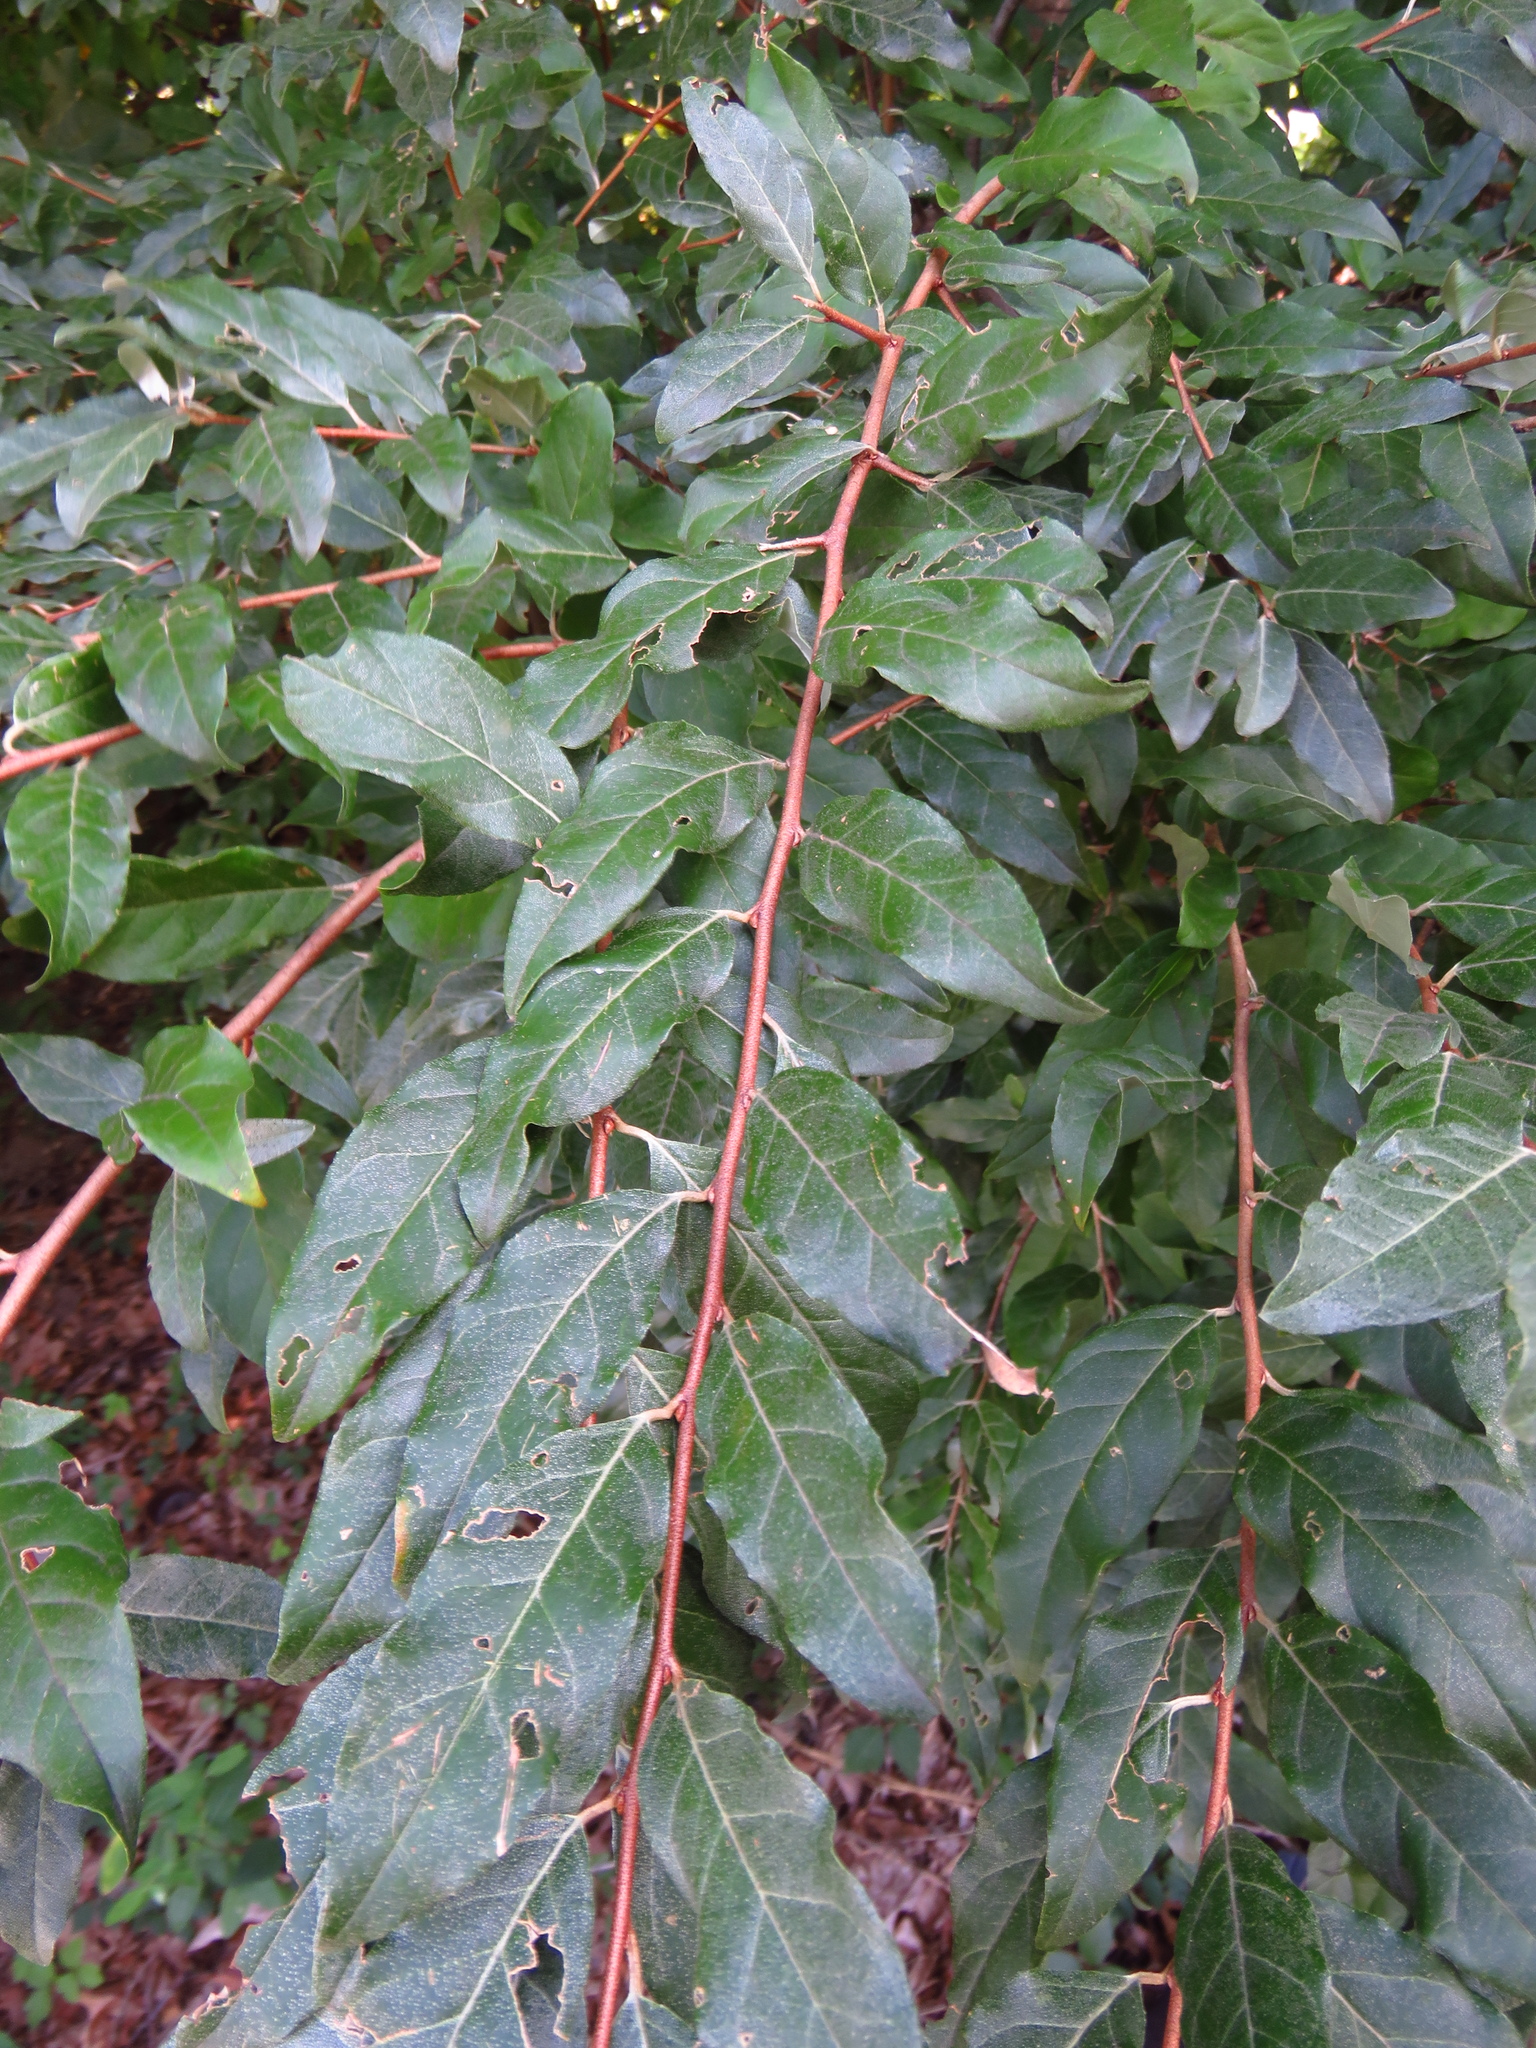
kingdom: Plantae
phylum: Tracheophyta
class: Magnoliopsida
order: Rosales
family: Elaeagnaceae
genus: Elaeagnus
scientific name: Elaeagnus umbellata
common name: Autumn olive
